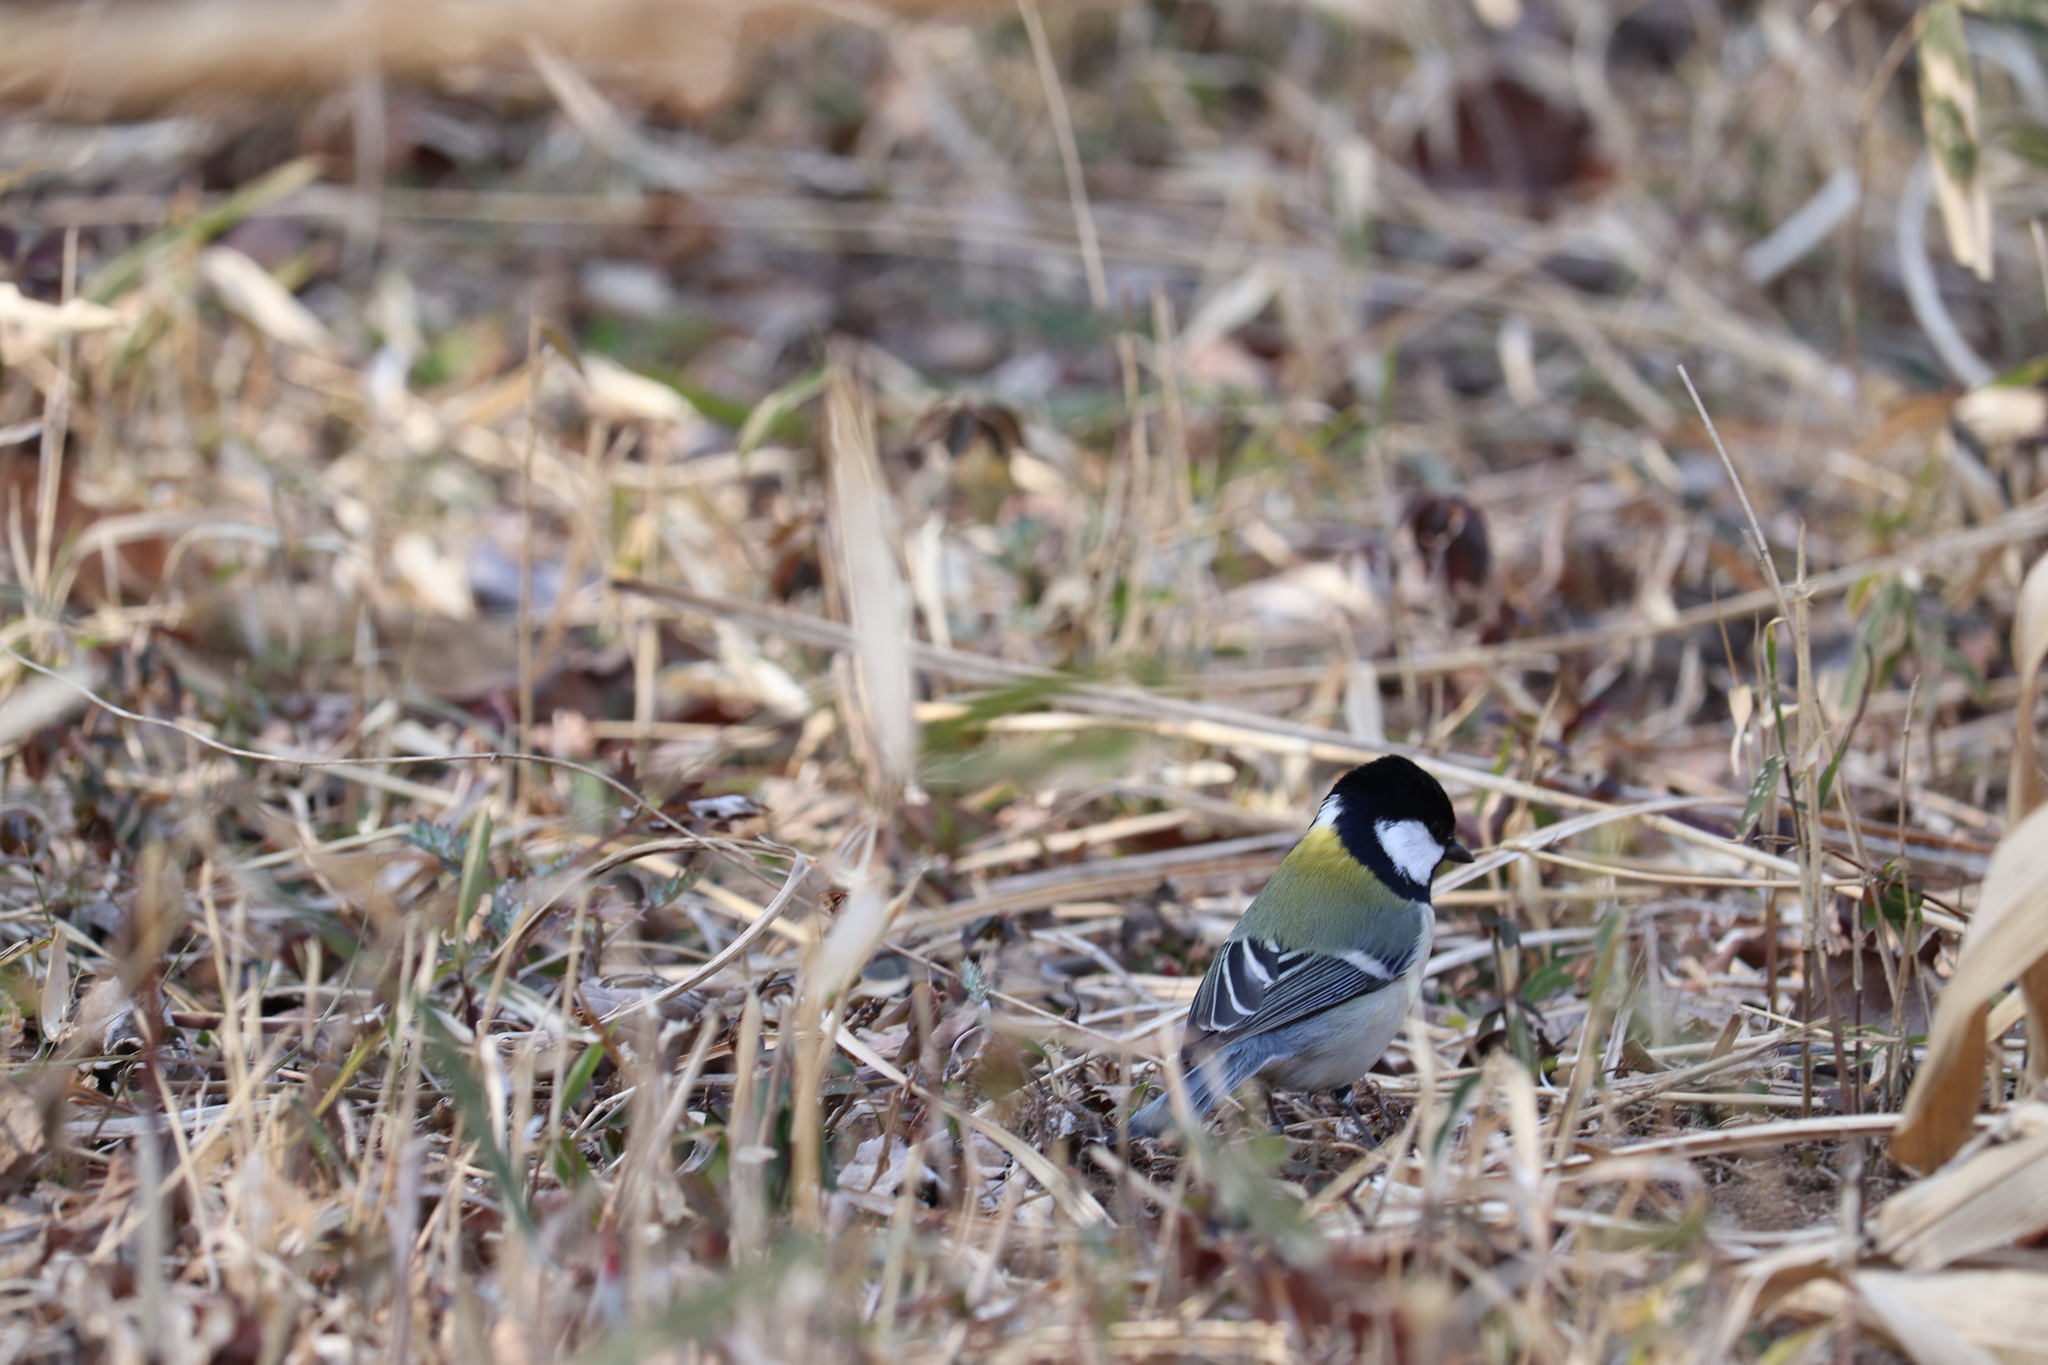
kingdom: Animalia
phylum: Chordata
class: Aves
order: Passeriformes
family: Paridae
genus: Parus
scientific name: Parus minor
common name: Japanese tit
